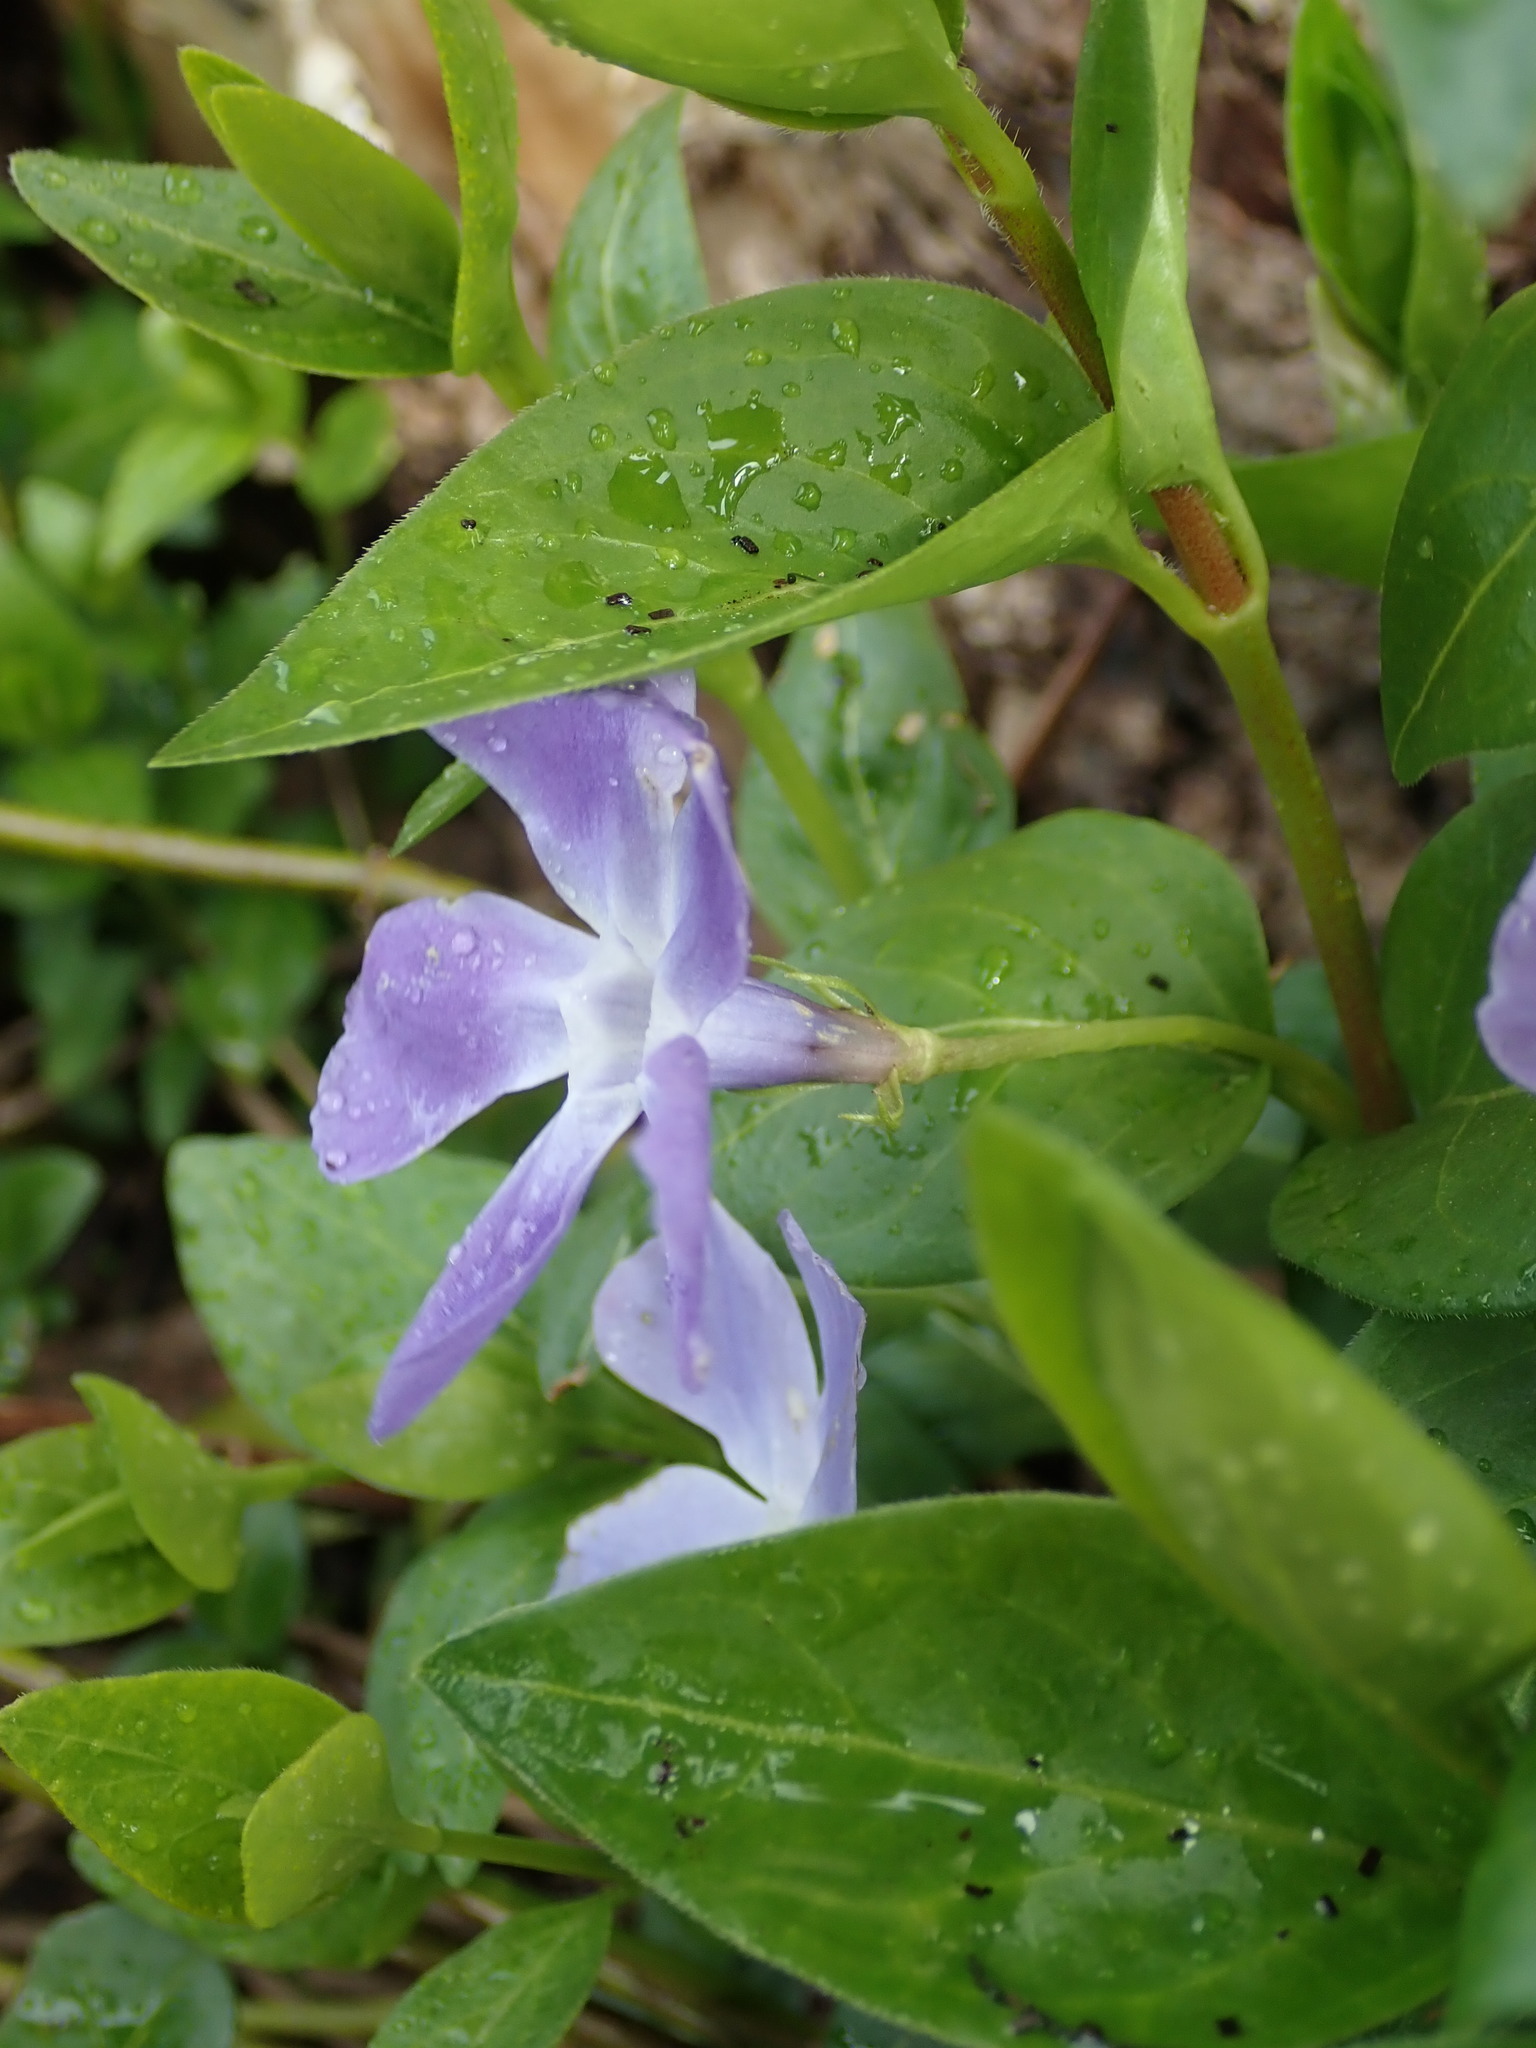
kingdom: Plantae
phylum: Tracheophyta
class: Magnoliopsida
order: Gentianales
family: Apocynaceae
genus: Vinca
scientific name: Vinca major
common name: Greater periwinkle
